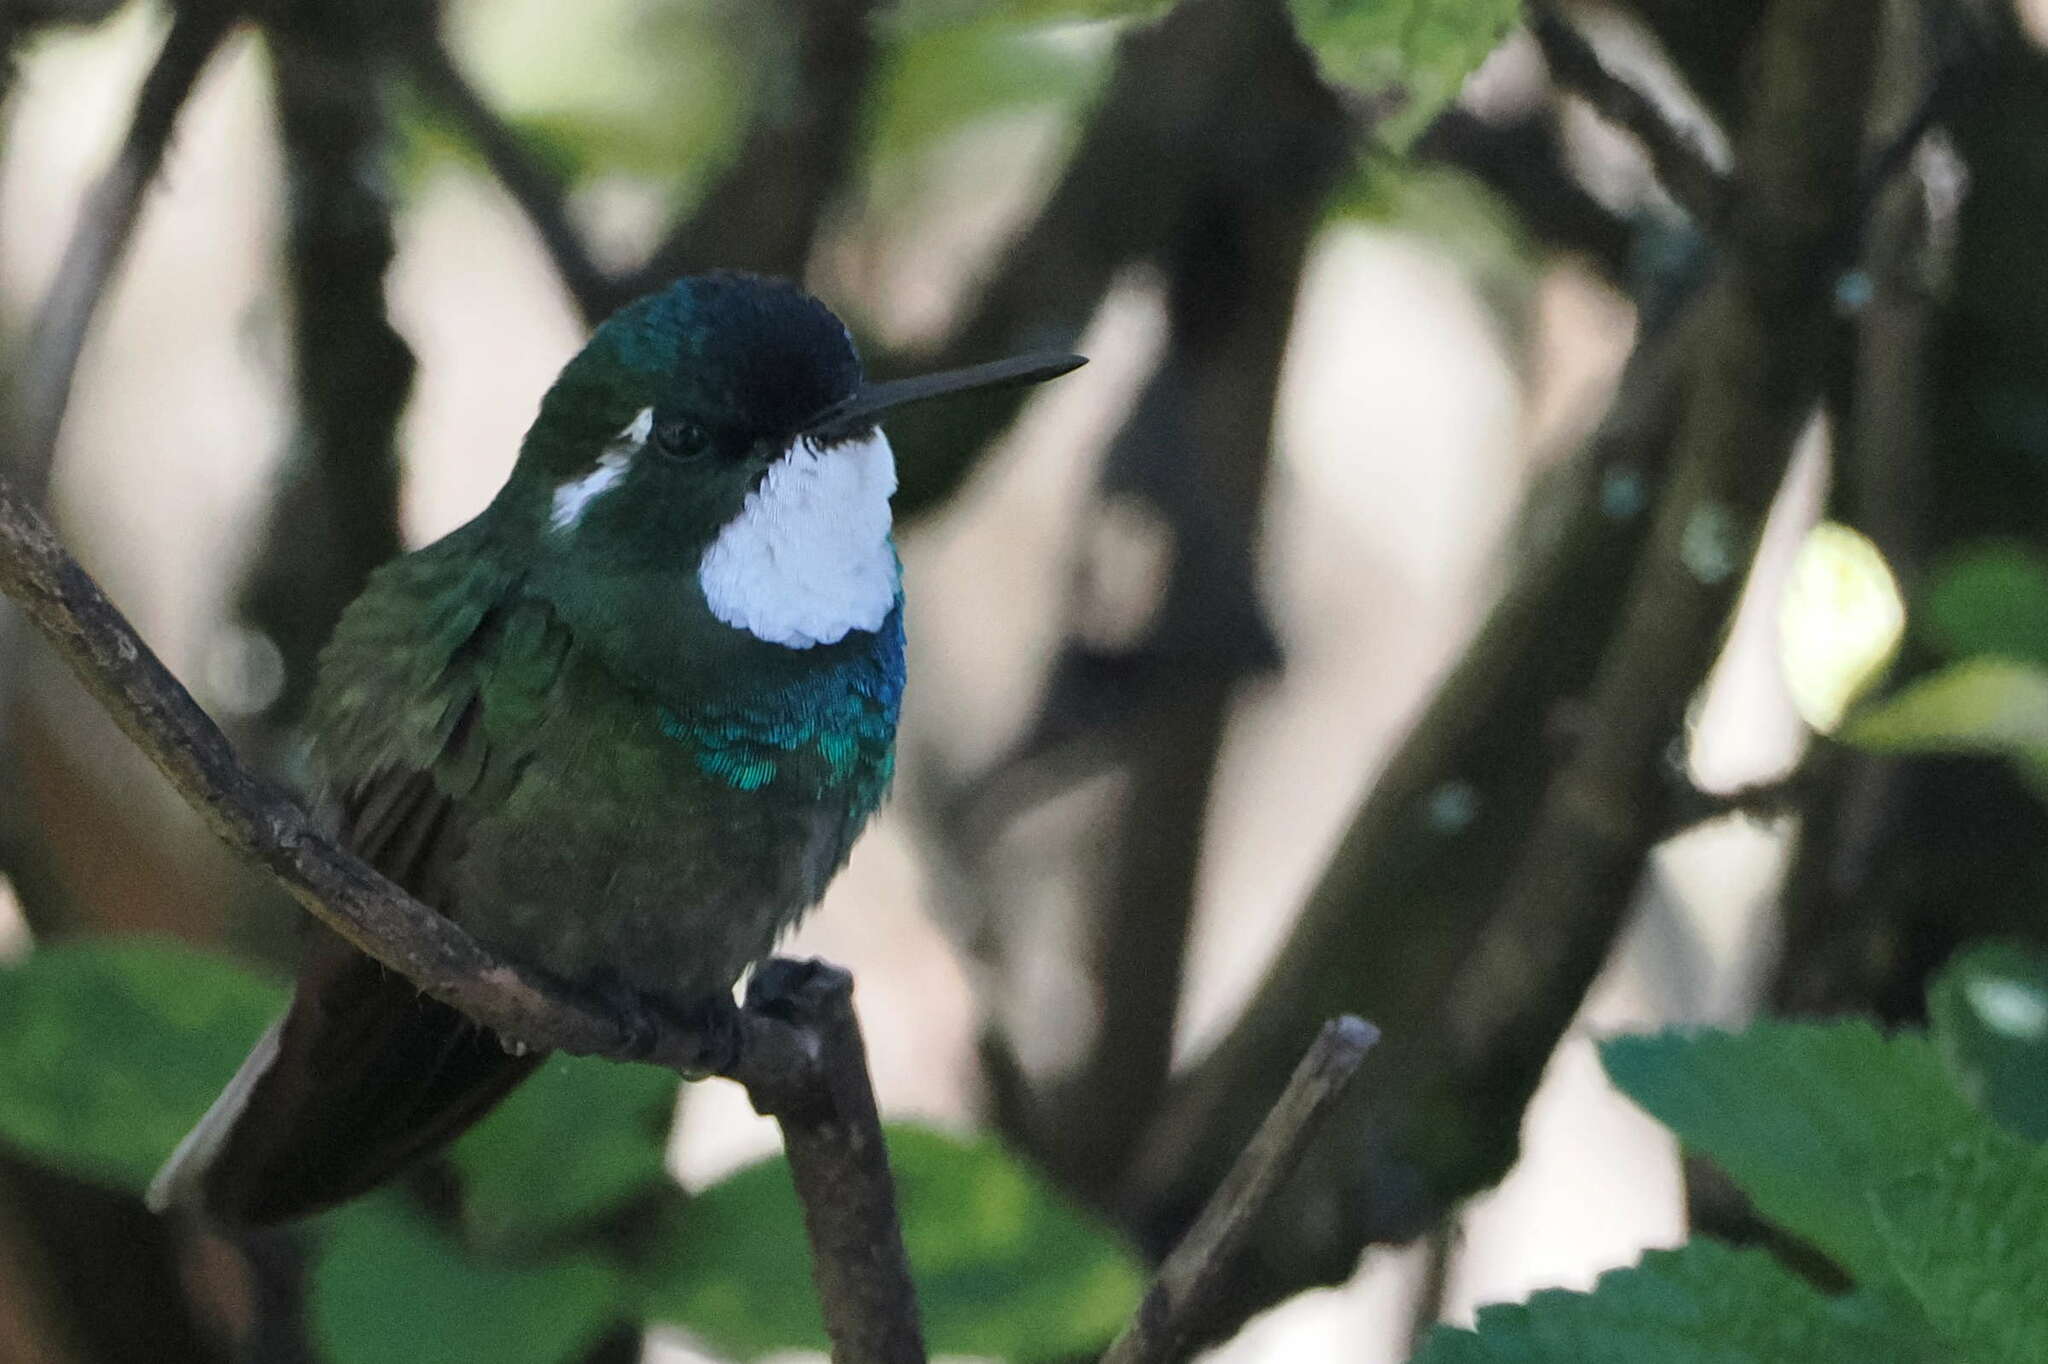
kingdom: Animalia
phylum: Chordata
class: Aves
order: Apodiformes
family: Trochilidae
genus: Lampornis
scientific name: Lampornis castaneoventris
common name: White-throated mountain-gem
